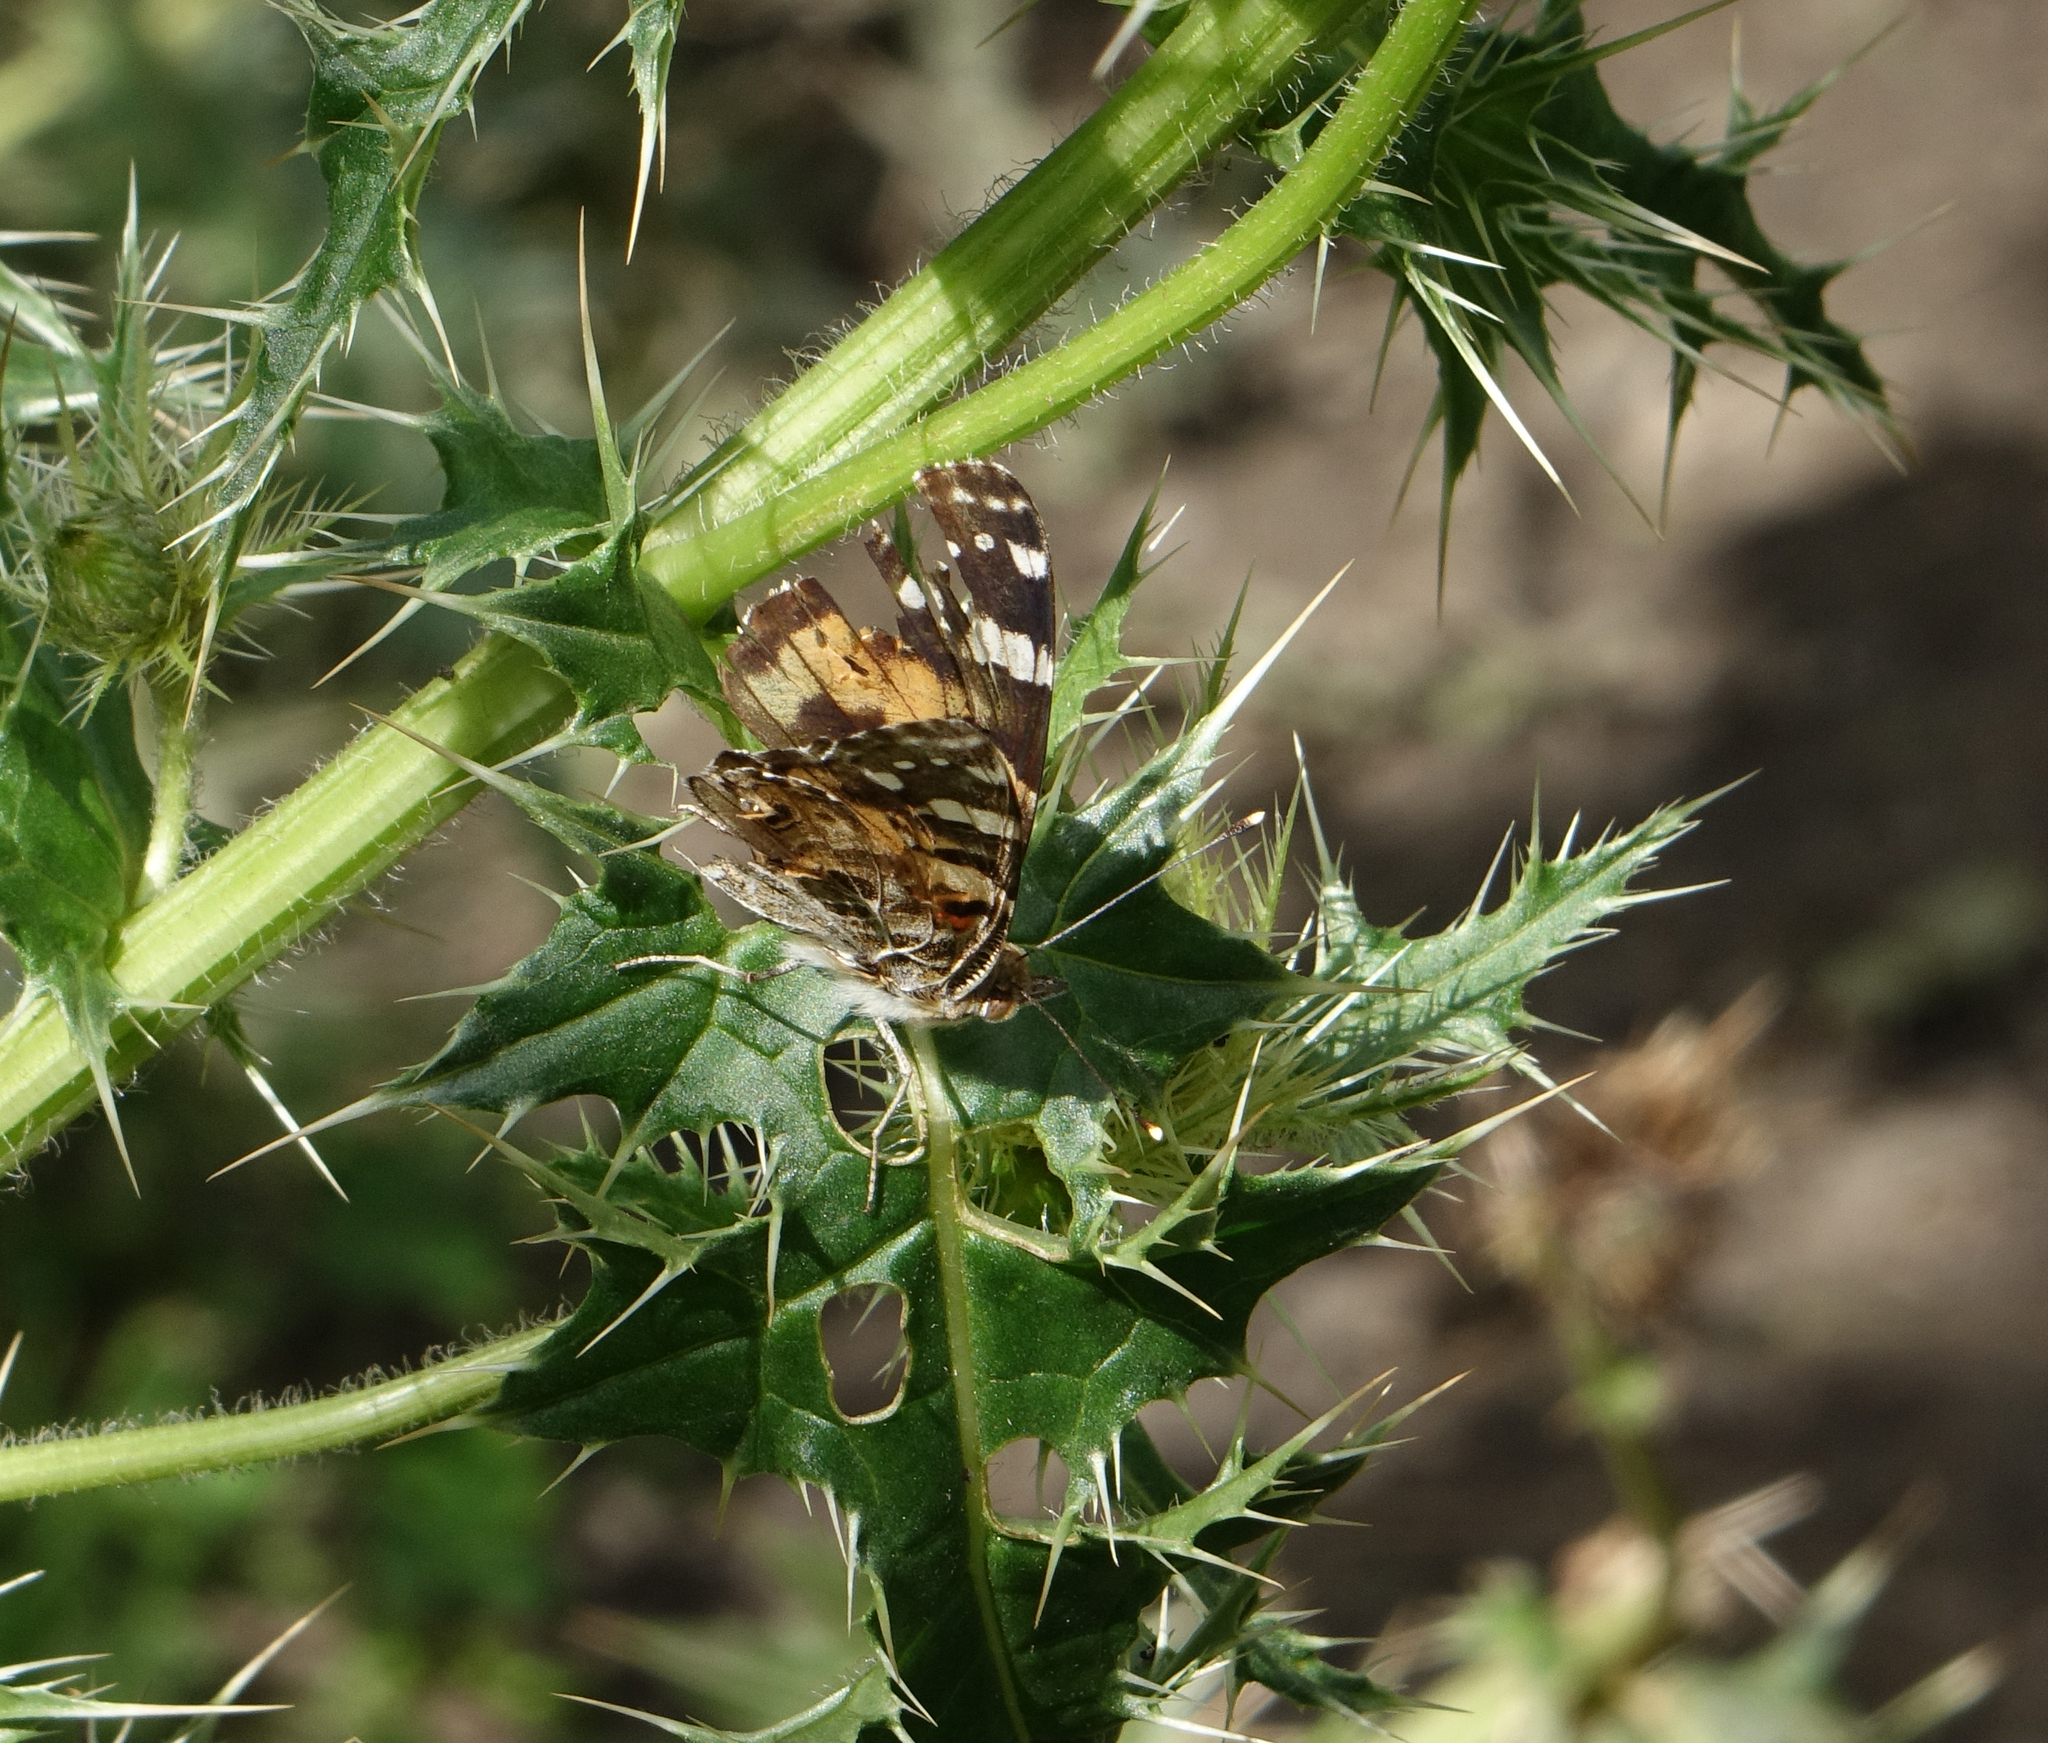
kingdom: Animalia
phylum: Arthropoda
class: Insecta
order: Lepidoptera
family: Nymphalidae
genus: Vanessa
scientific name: Vanessa cardui
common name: Painted lady
